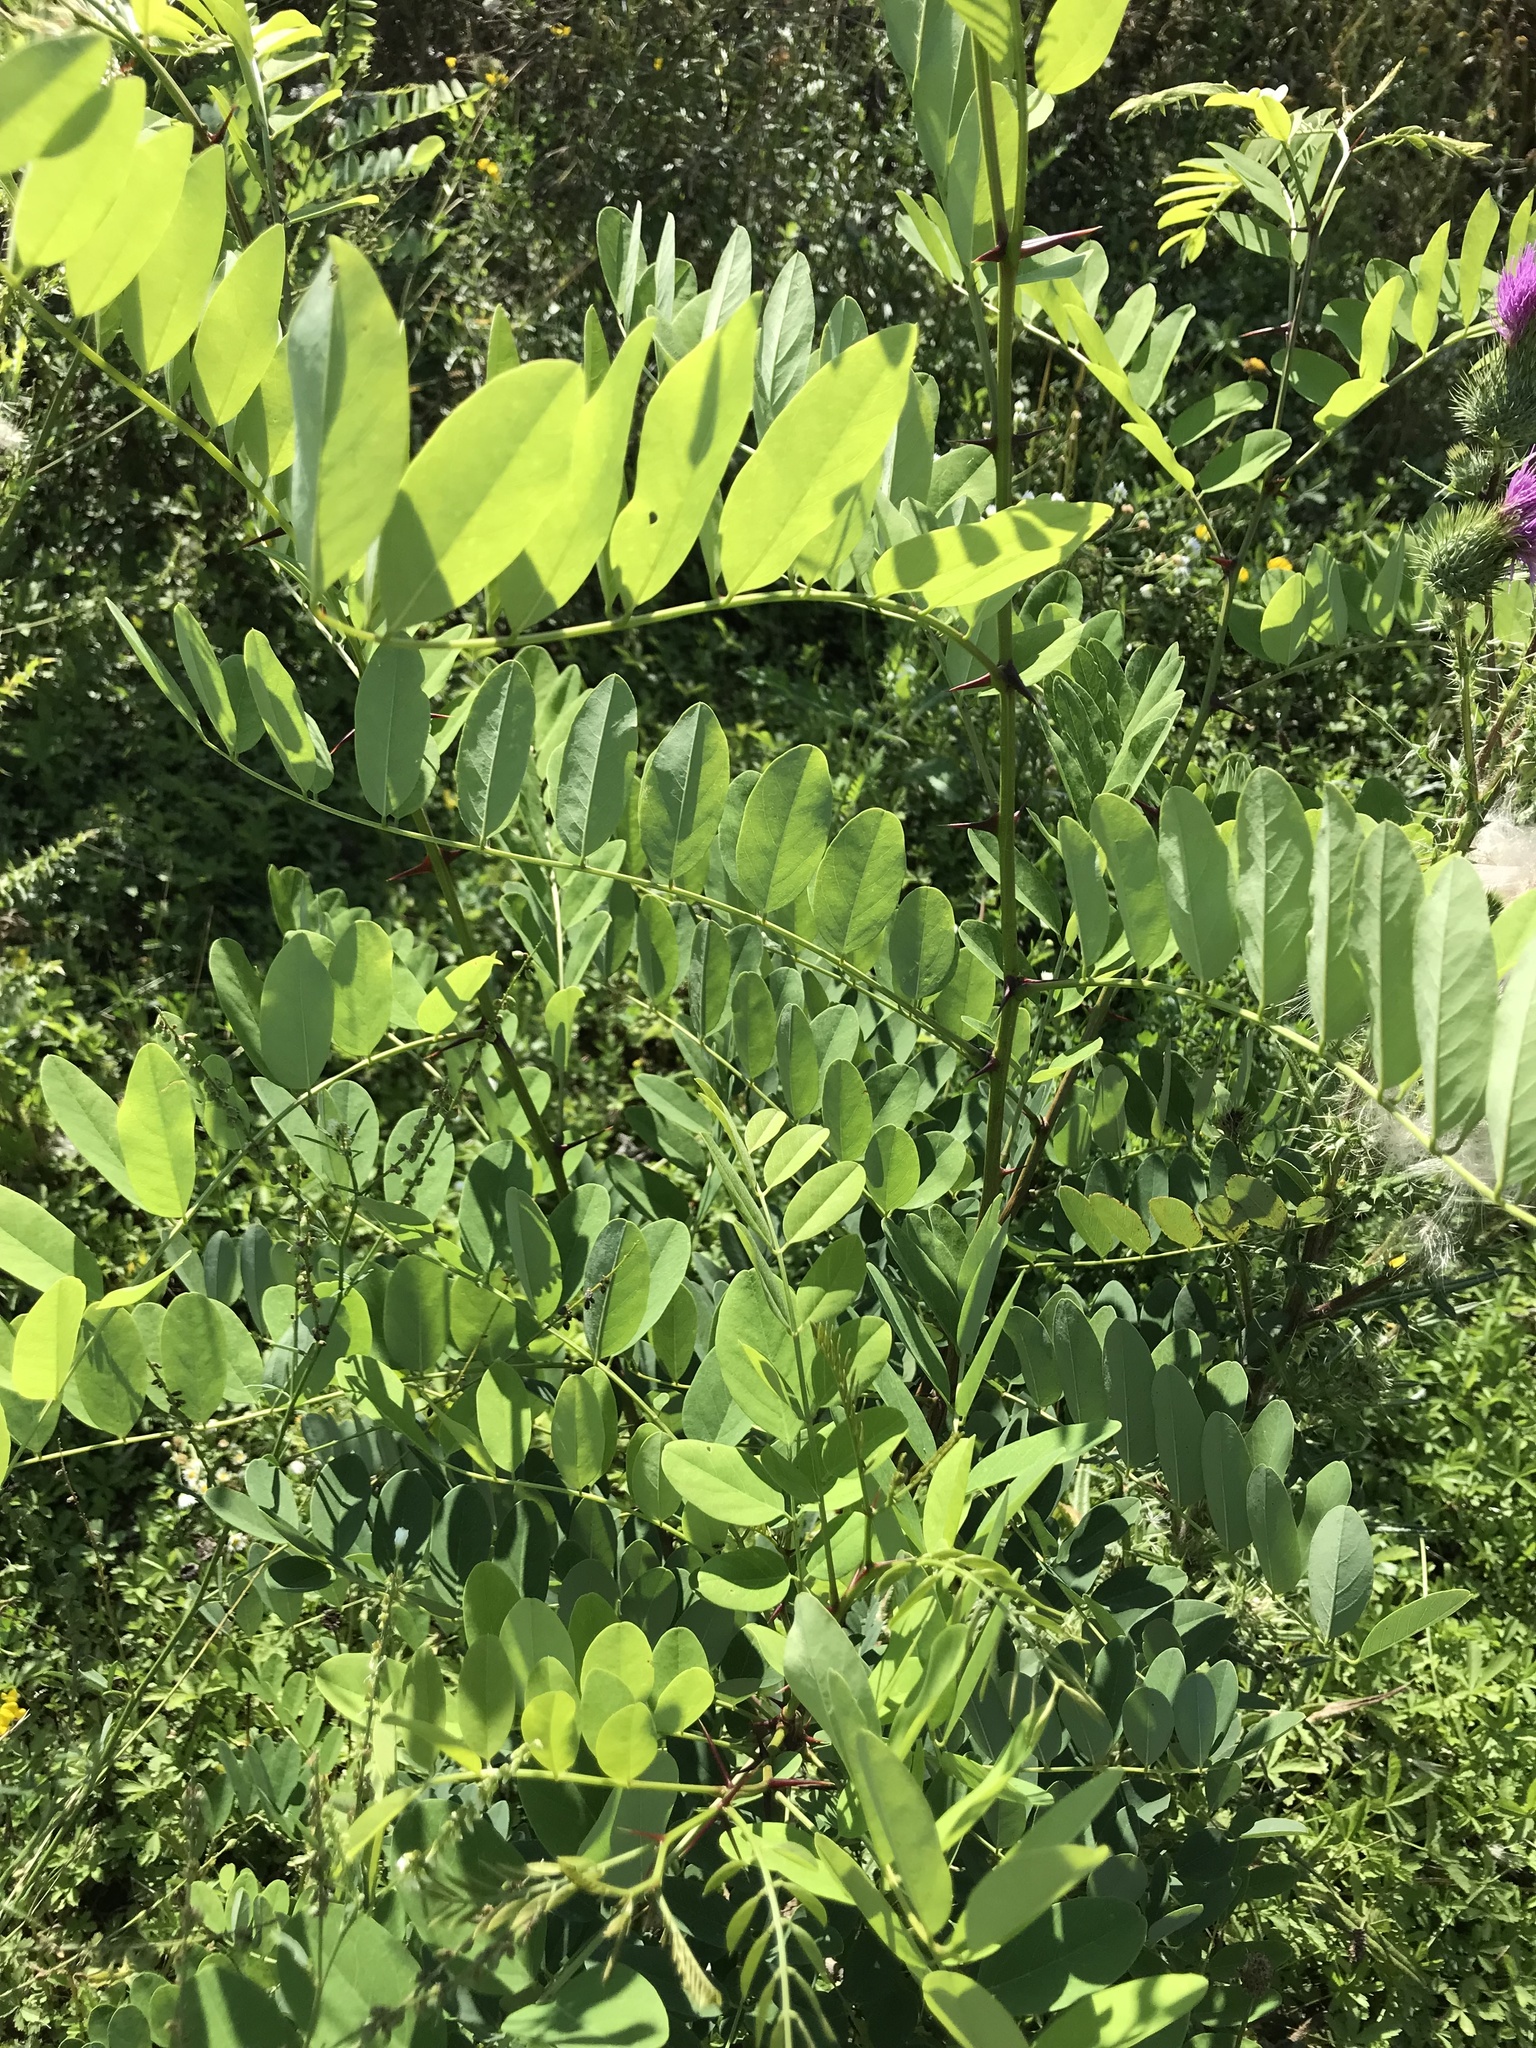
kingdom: Plantae
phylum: Tracheophyta
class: Magnoliopsida
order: Fabales
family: Fabaceae
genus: Robinia
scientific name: Robinia pseudoacacia
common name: Black locust
